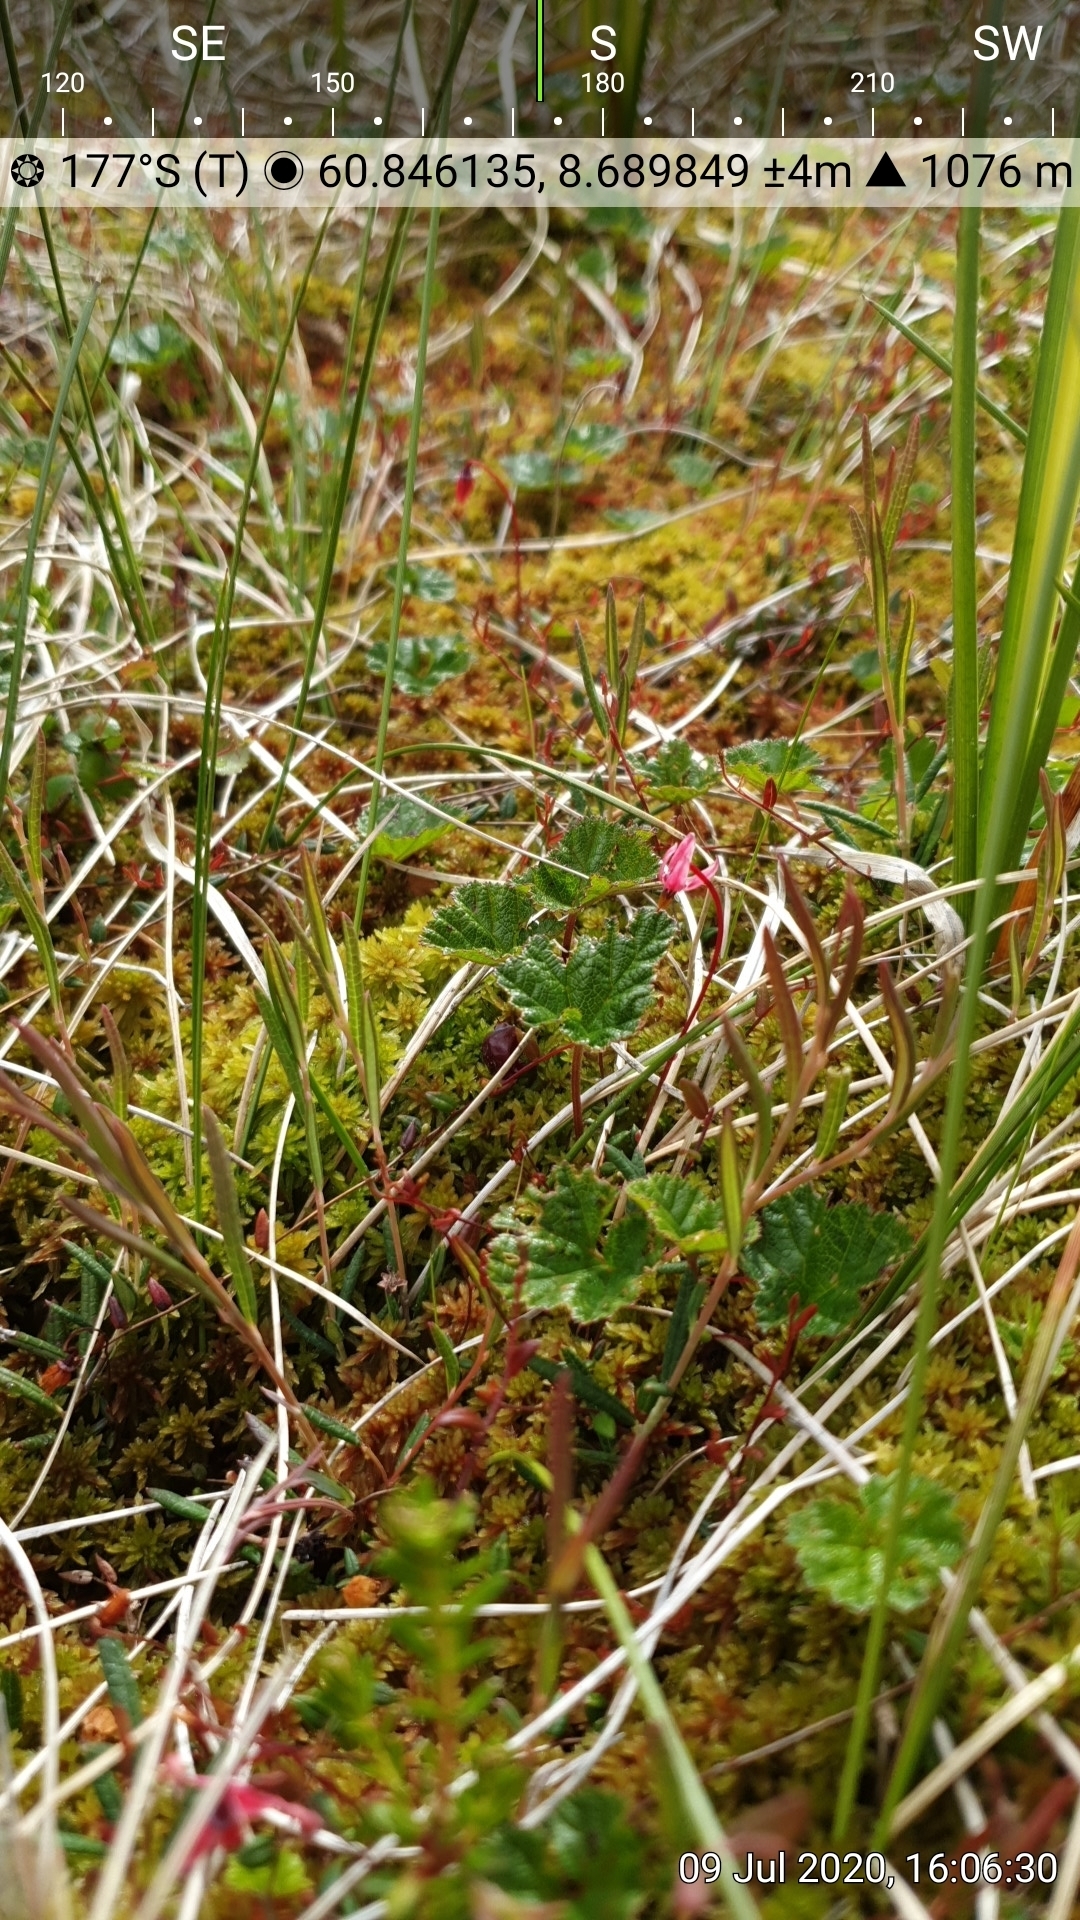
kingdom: Plantae
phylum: Tracheophyta
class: Magnoliopsida
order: Ericales
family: Ericaceae
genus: Vaccinium
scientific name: Vaccinium microcarpum
